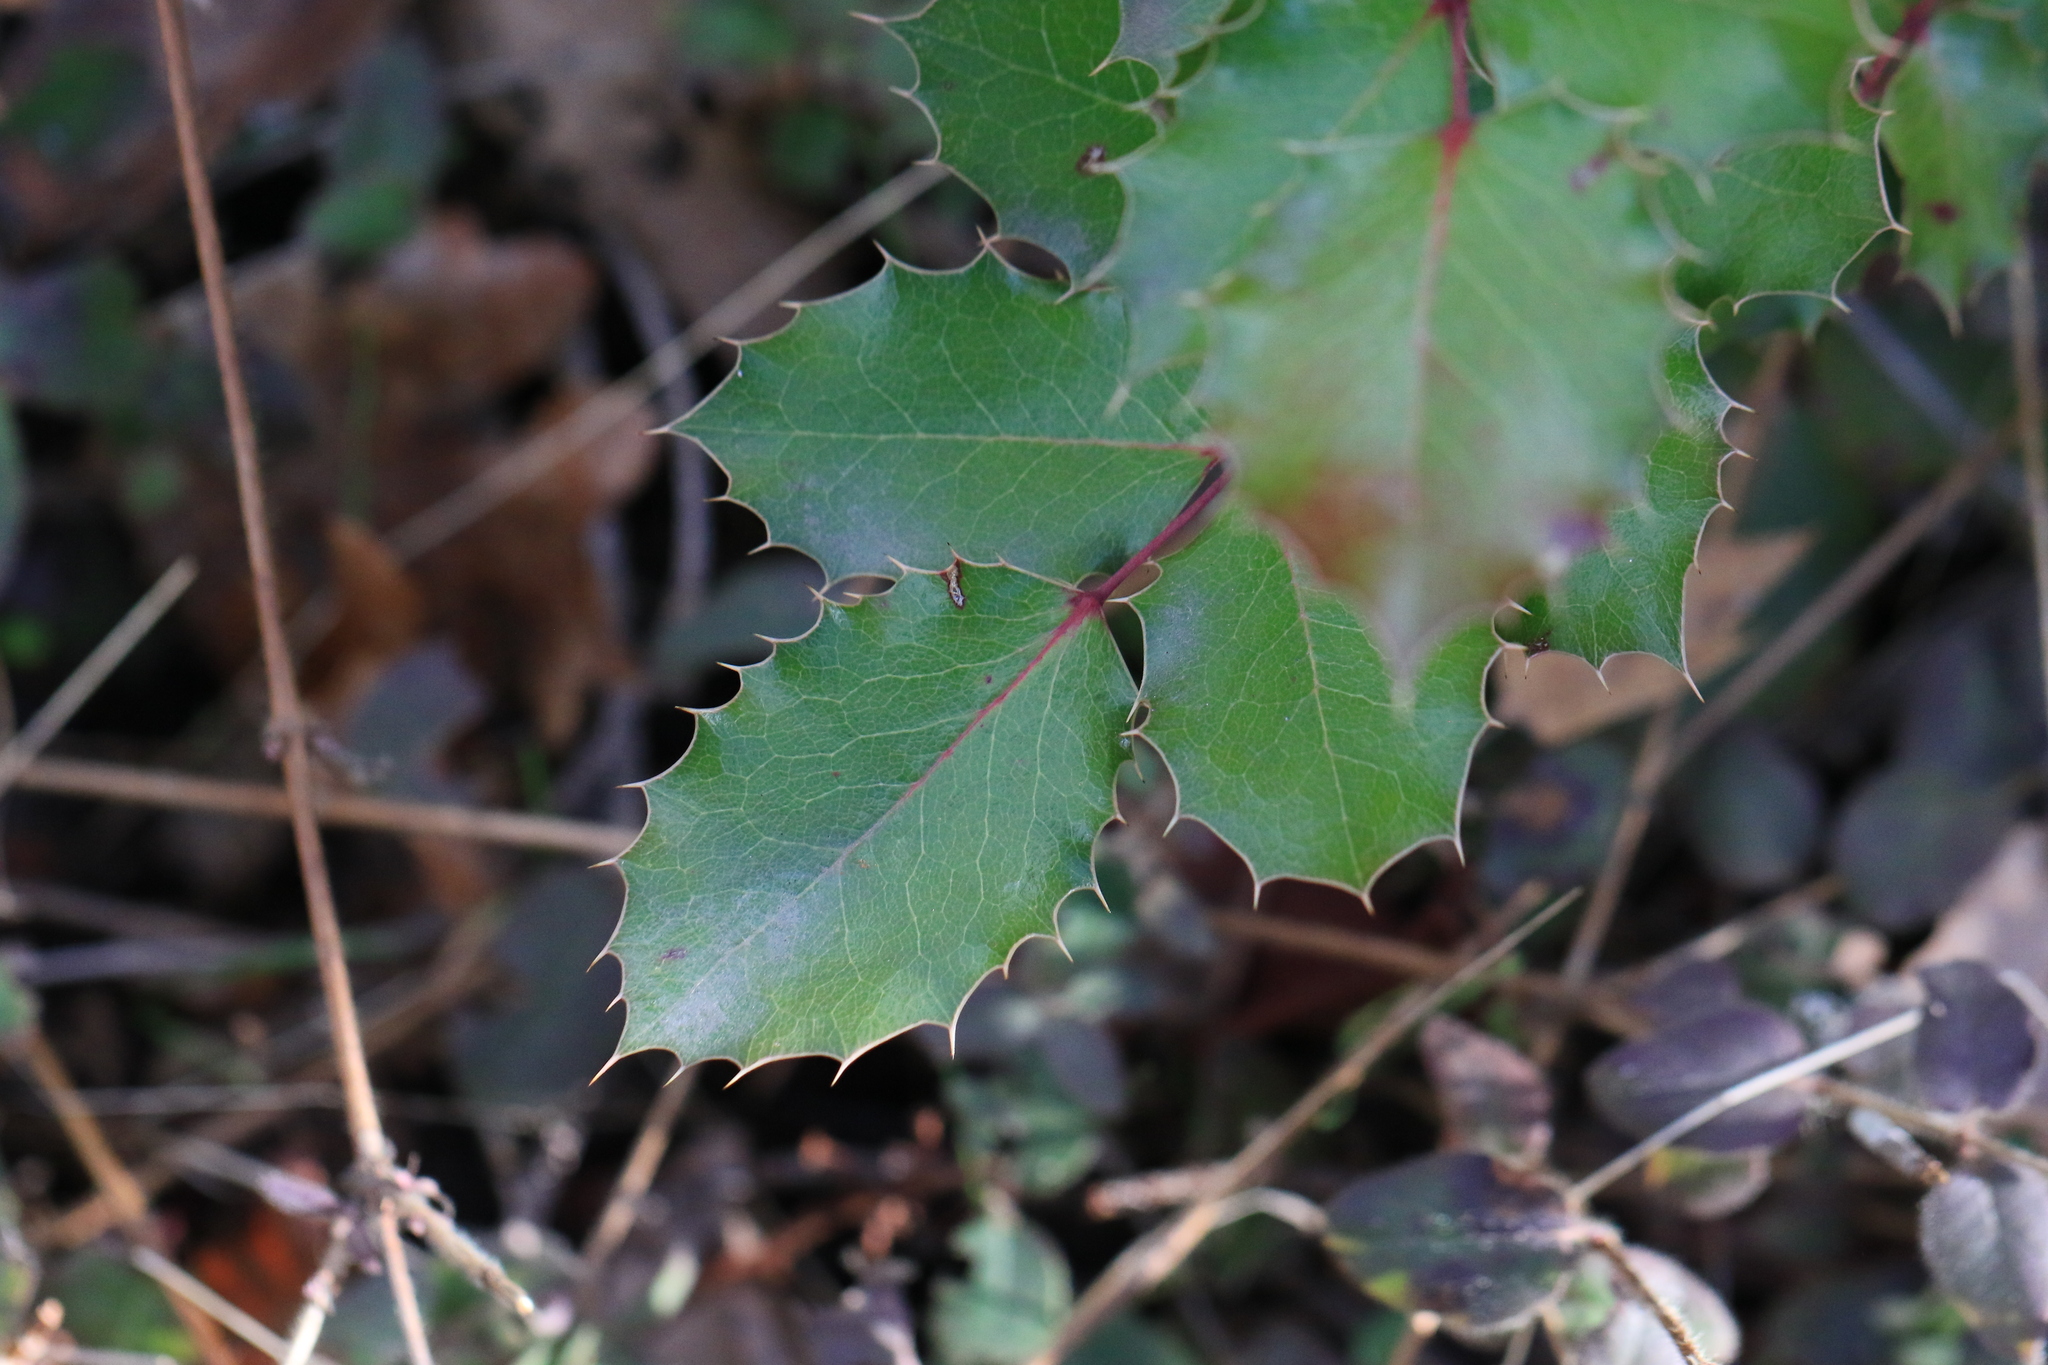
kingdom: Plantae
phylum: Tracheophyta
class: Magnoliopsida
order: Ranunculales
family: Berberidaceae
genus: Mahonia
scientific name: Mahonia aquifolium
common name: Oregon-grape
